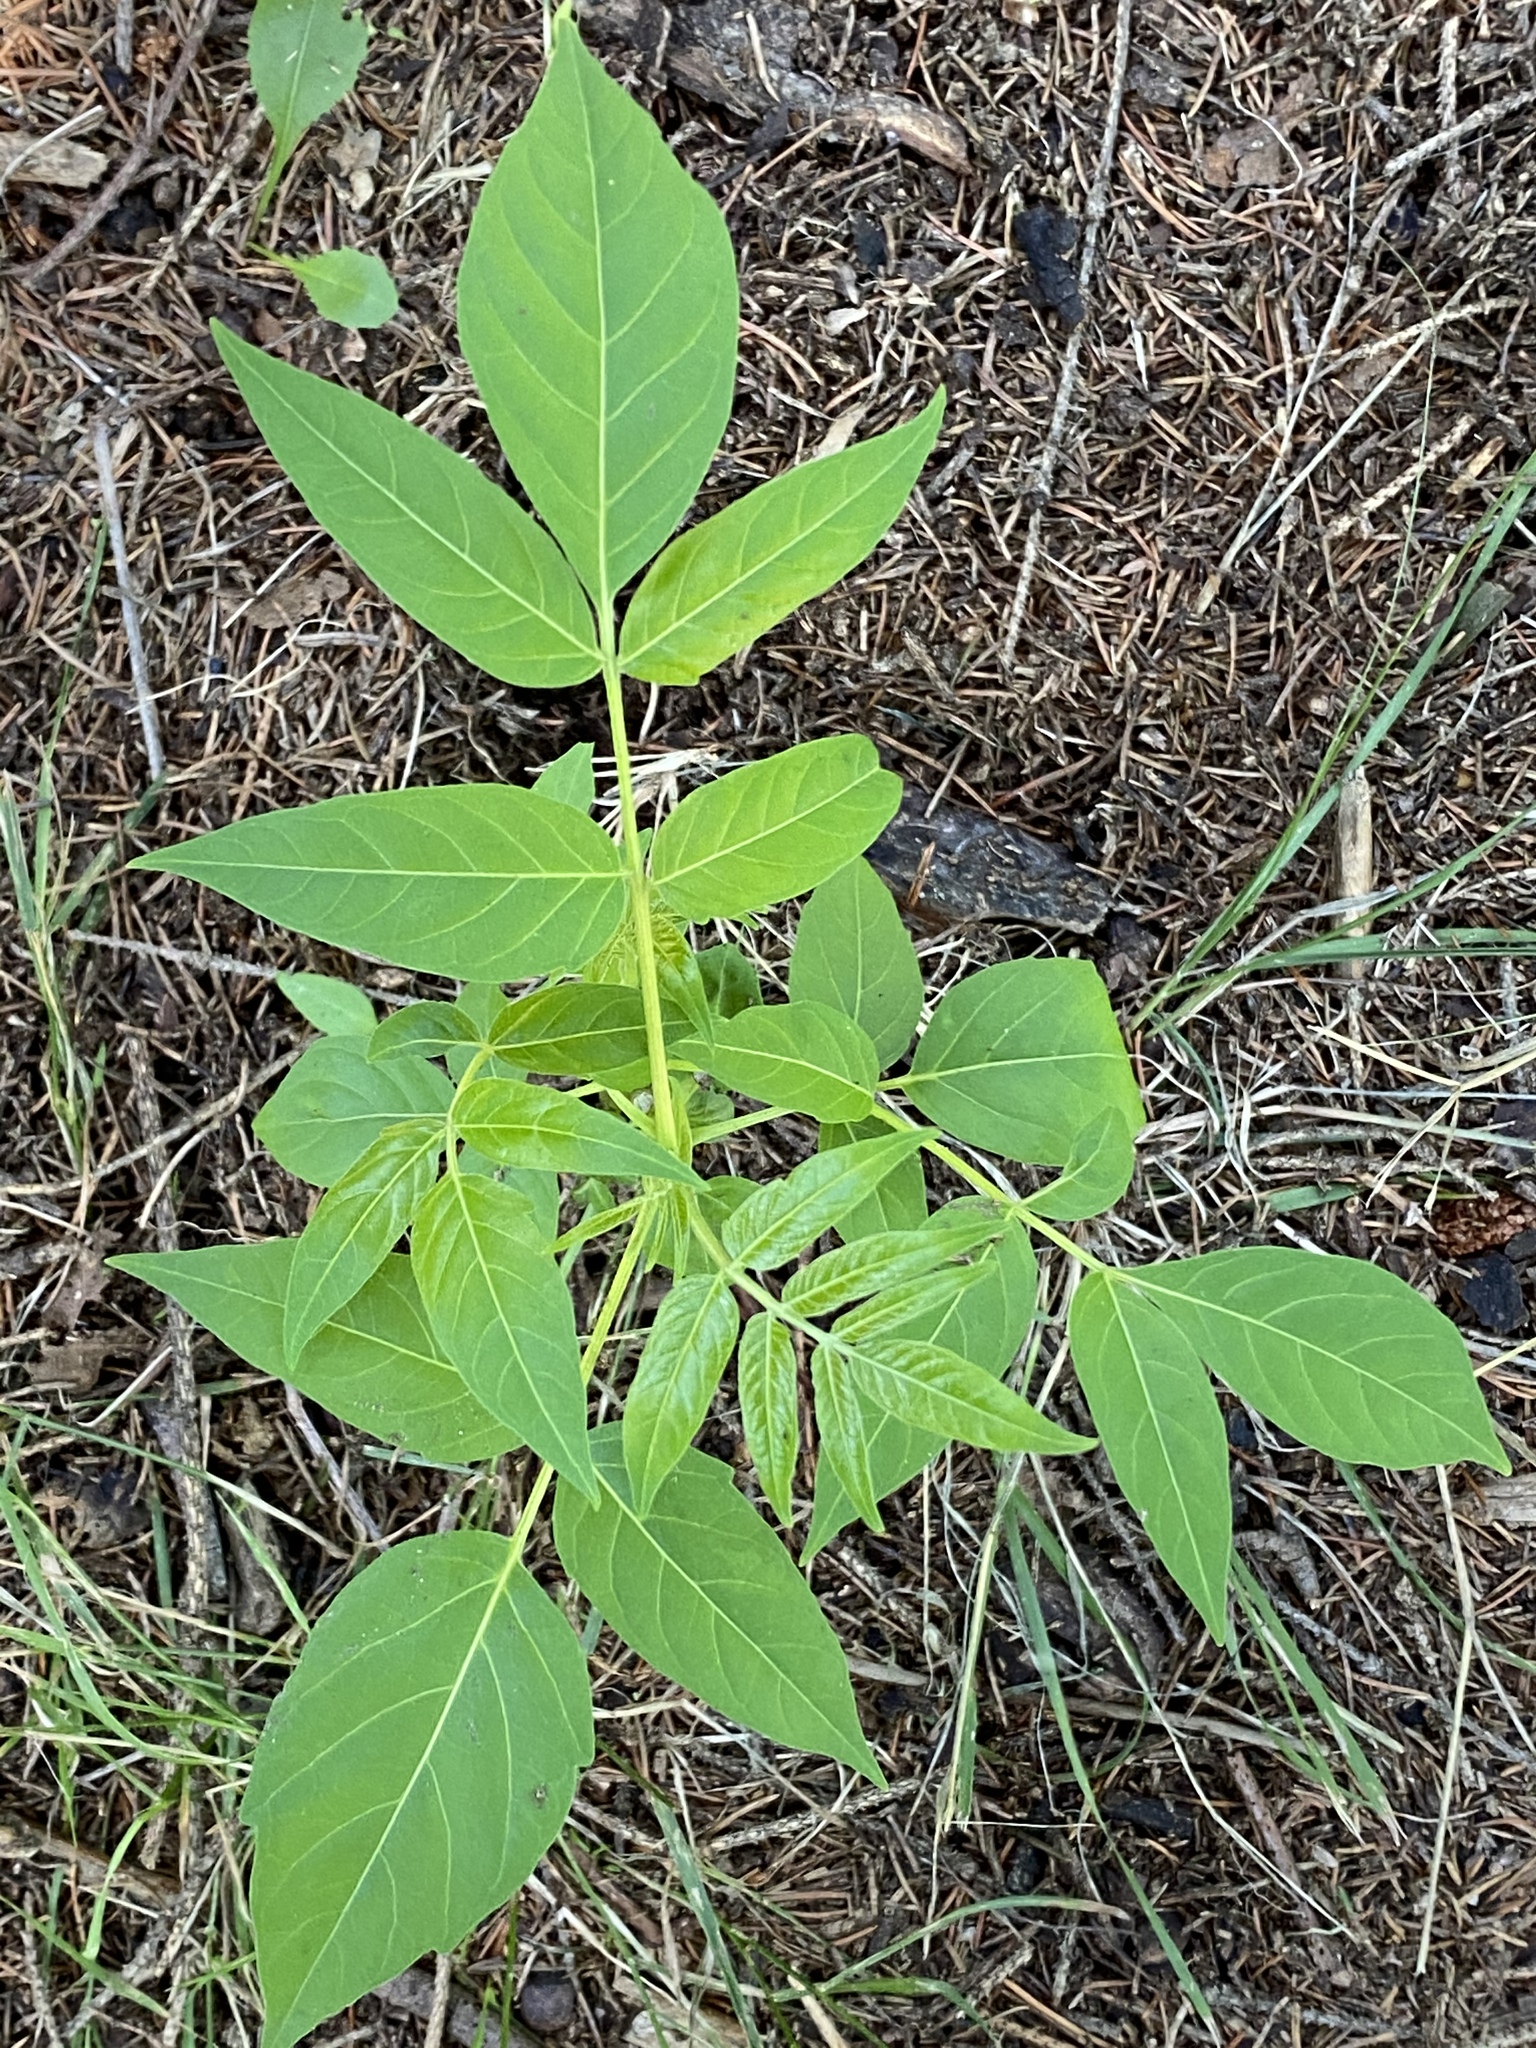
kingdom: Plantae
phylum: Tracheophyta
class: Magnoliopsida
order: Sapindales
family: Simaroubaceae
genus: Ailanthus
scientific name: Ailanthus altissima
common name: Tree-of-heaven
